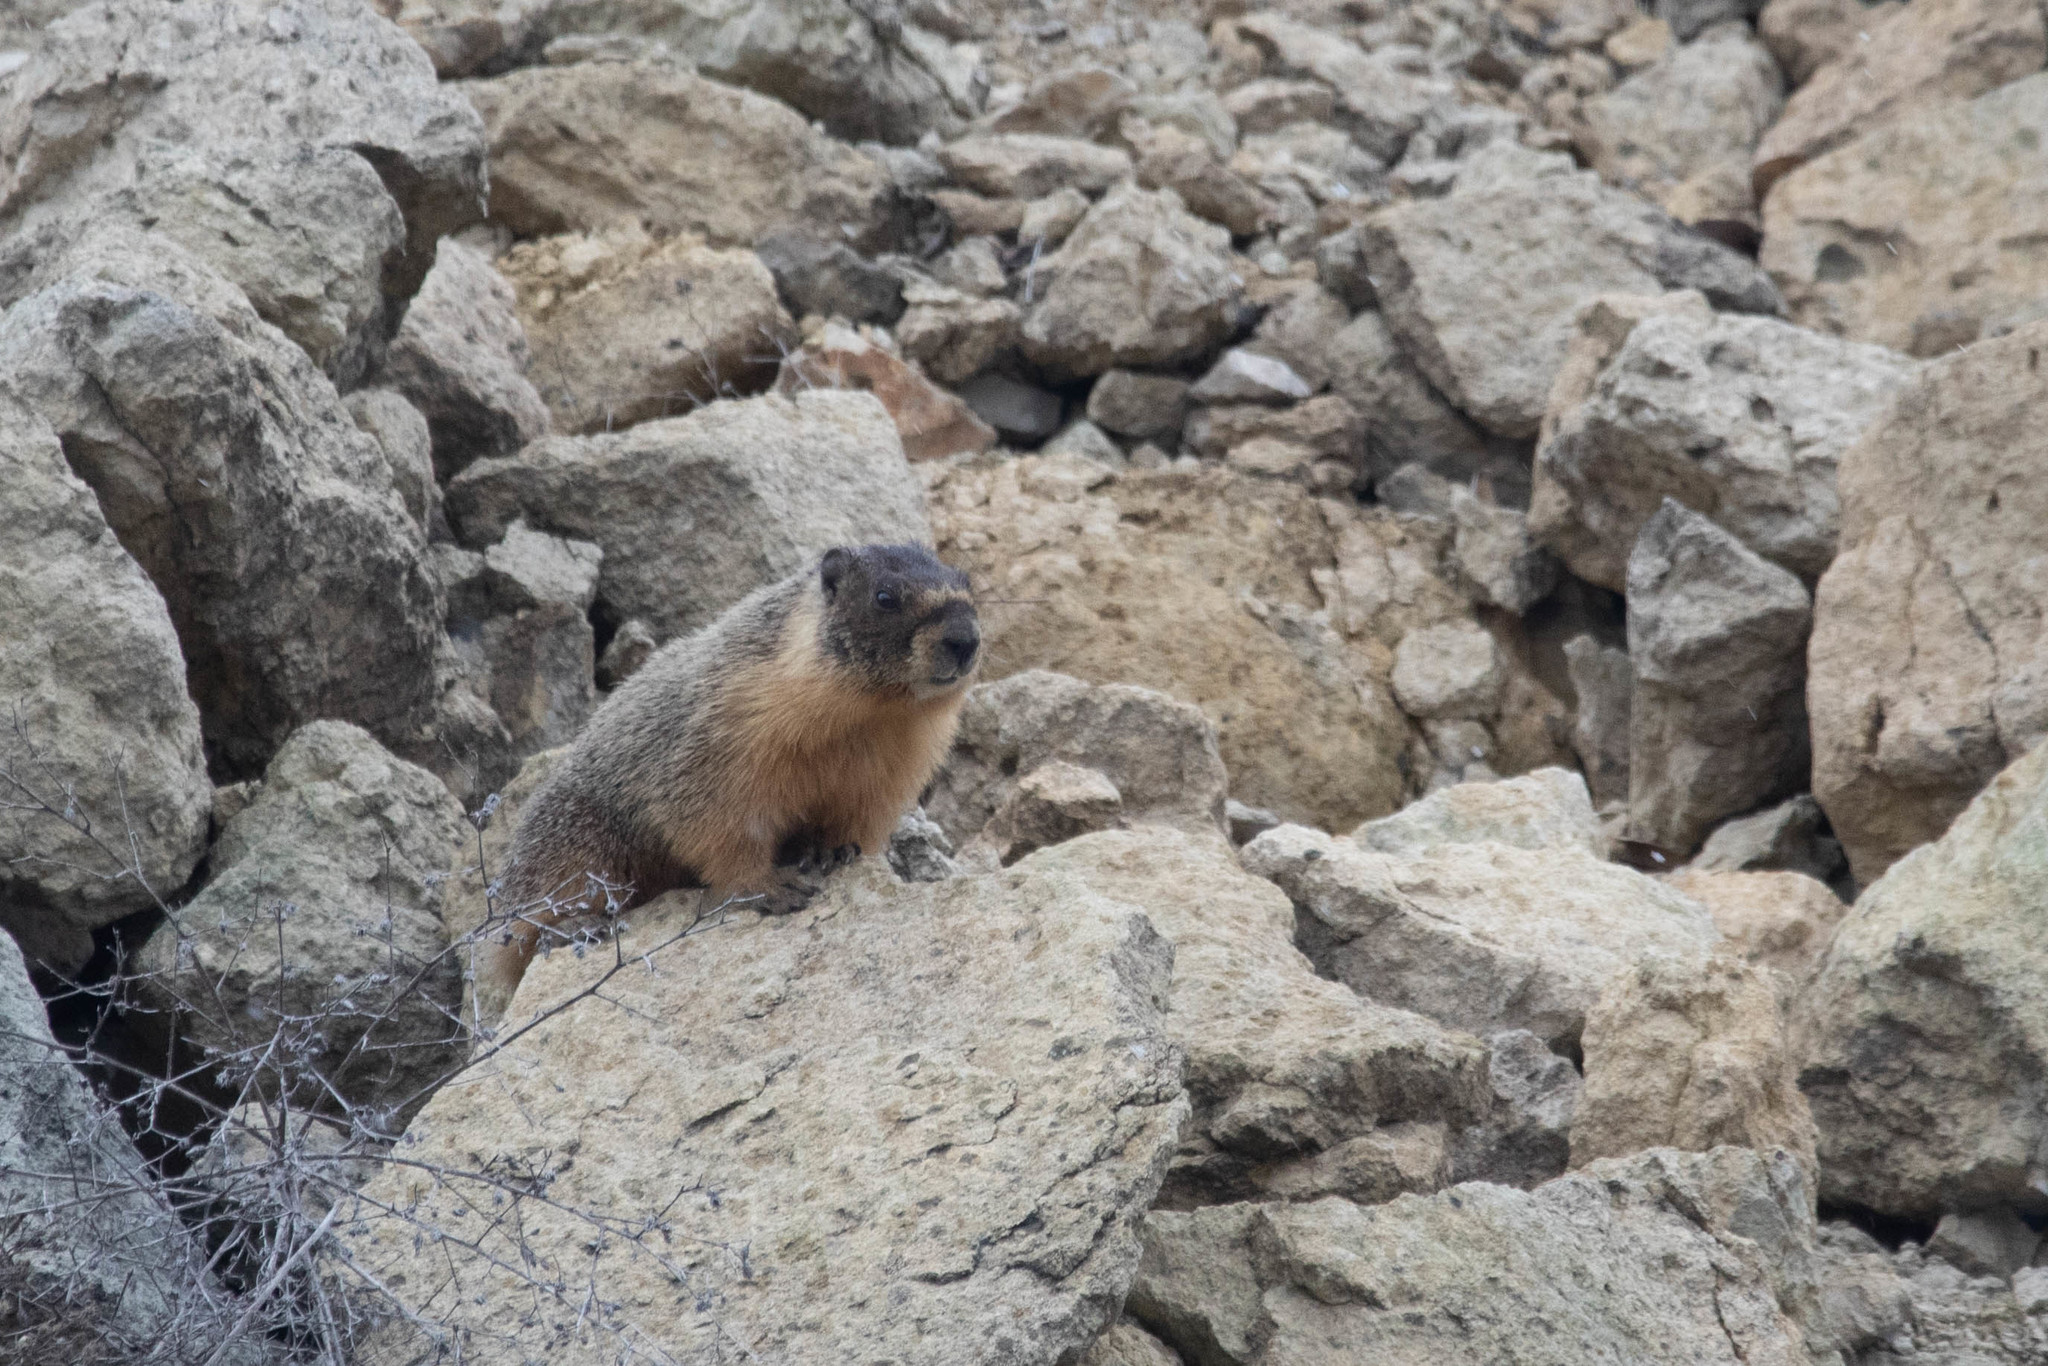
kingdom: Animalia
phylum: Chordata
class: Mammalia
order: Rodentia
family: Sciuridae
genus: Marmota
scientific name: Marmota flaviventris
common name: Yellow-bellied marmot
